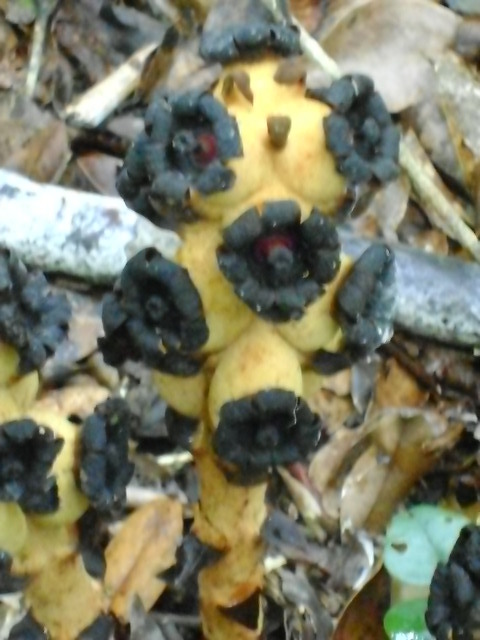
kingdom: Plantae
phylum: Tracheophyta
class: Magnoliopsida
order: Malvales
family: Cytinaceae
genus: Bdallophyton
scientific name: Bdallophyton americanum
